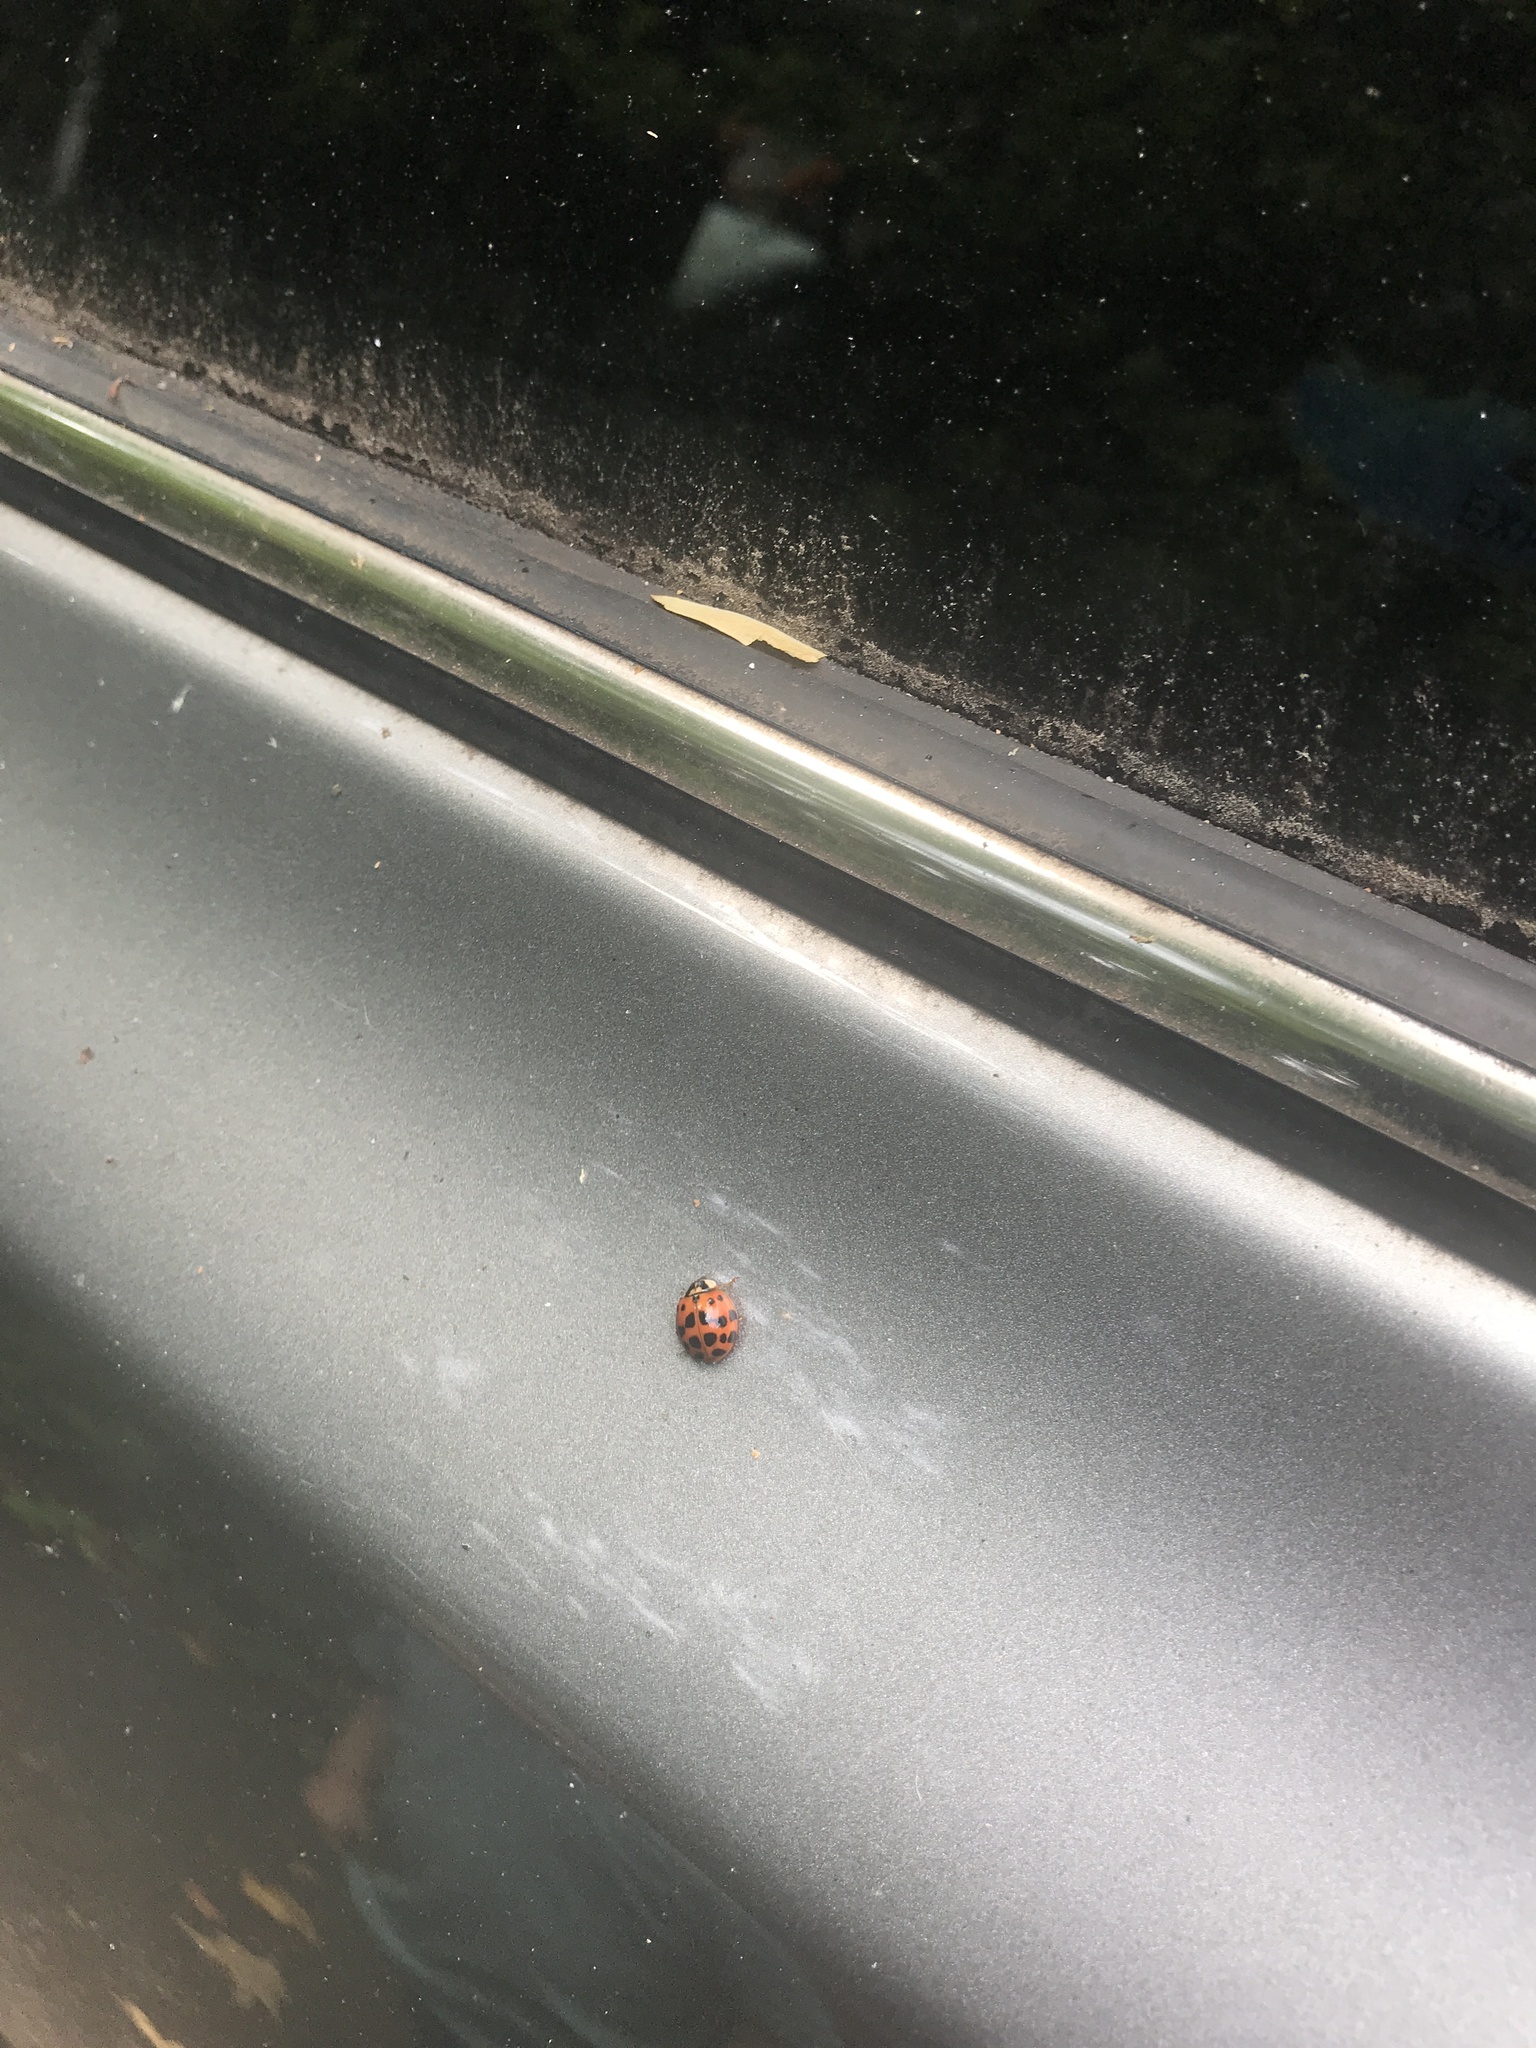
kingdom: Animalia
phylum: Arthropoda
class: Insecta
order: Coleoptera
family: Coccinellidae
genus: Harmonia
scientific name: Harmonia axyridis
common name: Harlequin ladybird
